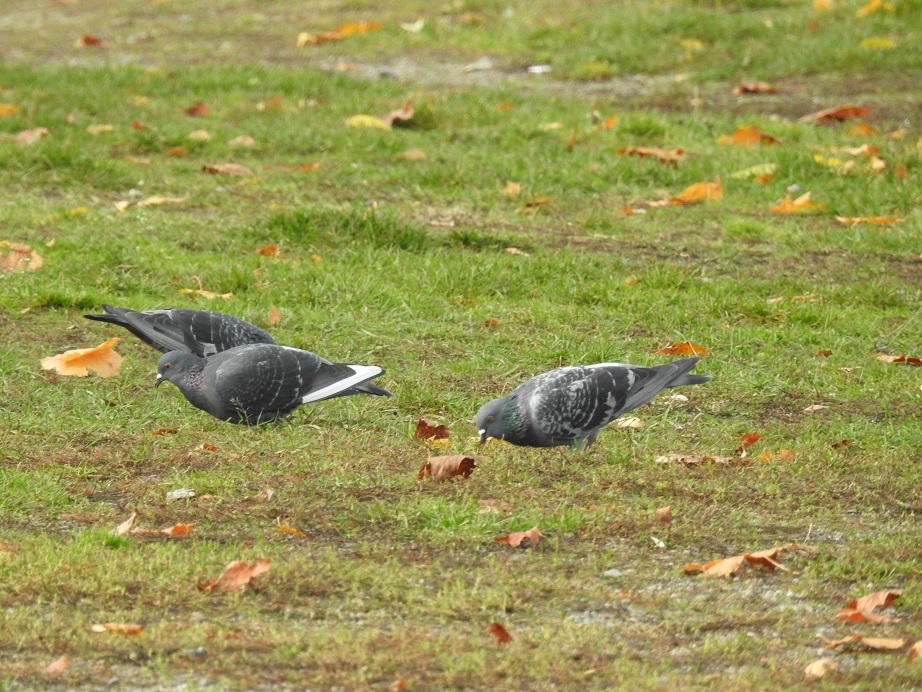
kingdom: Animalia
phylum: Chordata
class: Aves
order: Columbiformes
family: Columbidae
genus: Columba
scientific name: Columba livia
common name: Rock pigeon
